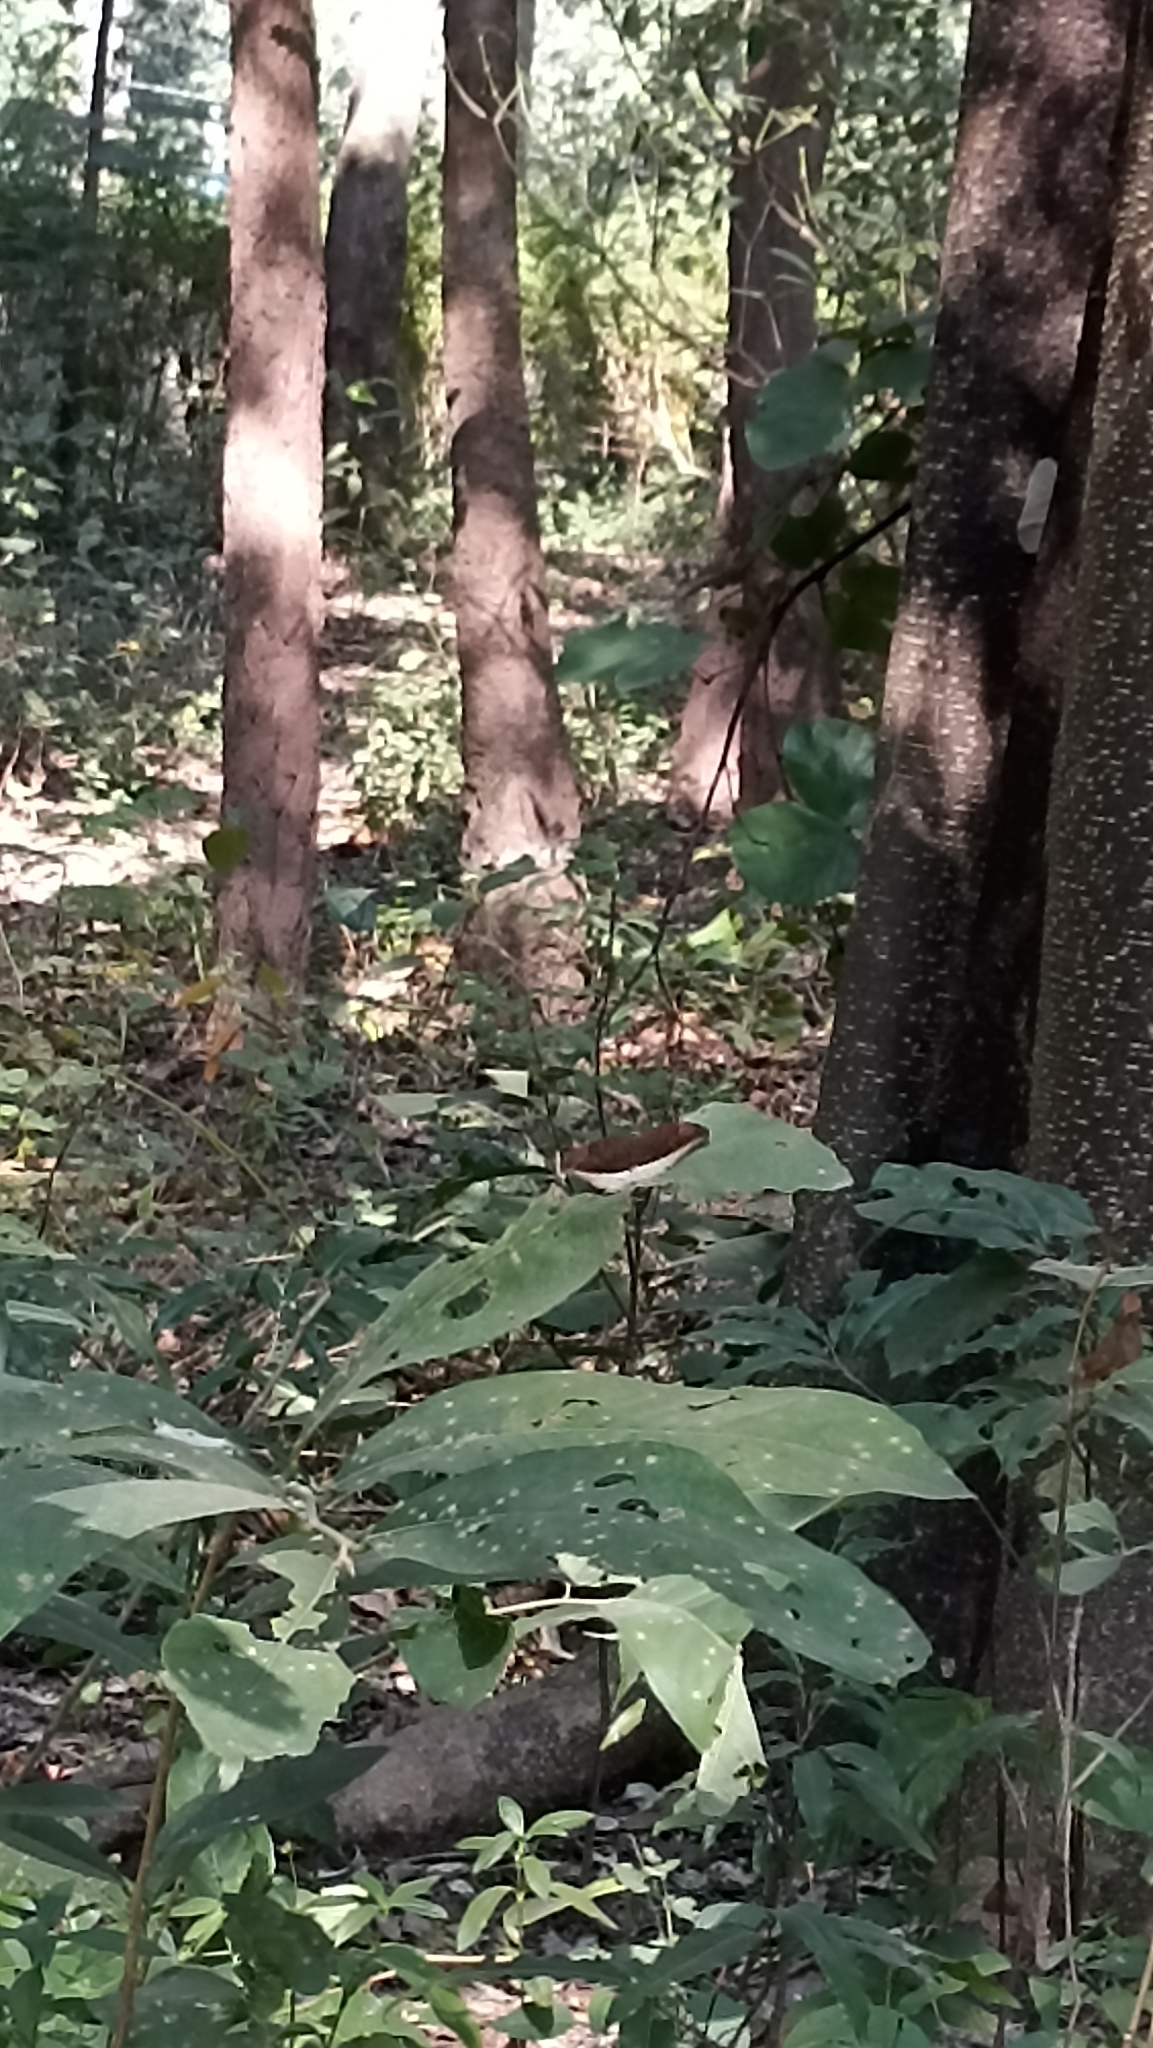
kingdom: Animalia
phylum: Arthropoda
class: Insecta
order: Lepidoptera
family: Nymphalidae
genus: Tanaecia
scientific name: Tanaecia lepidea
